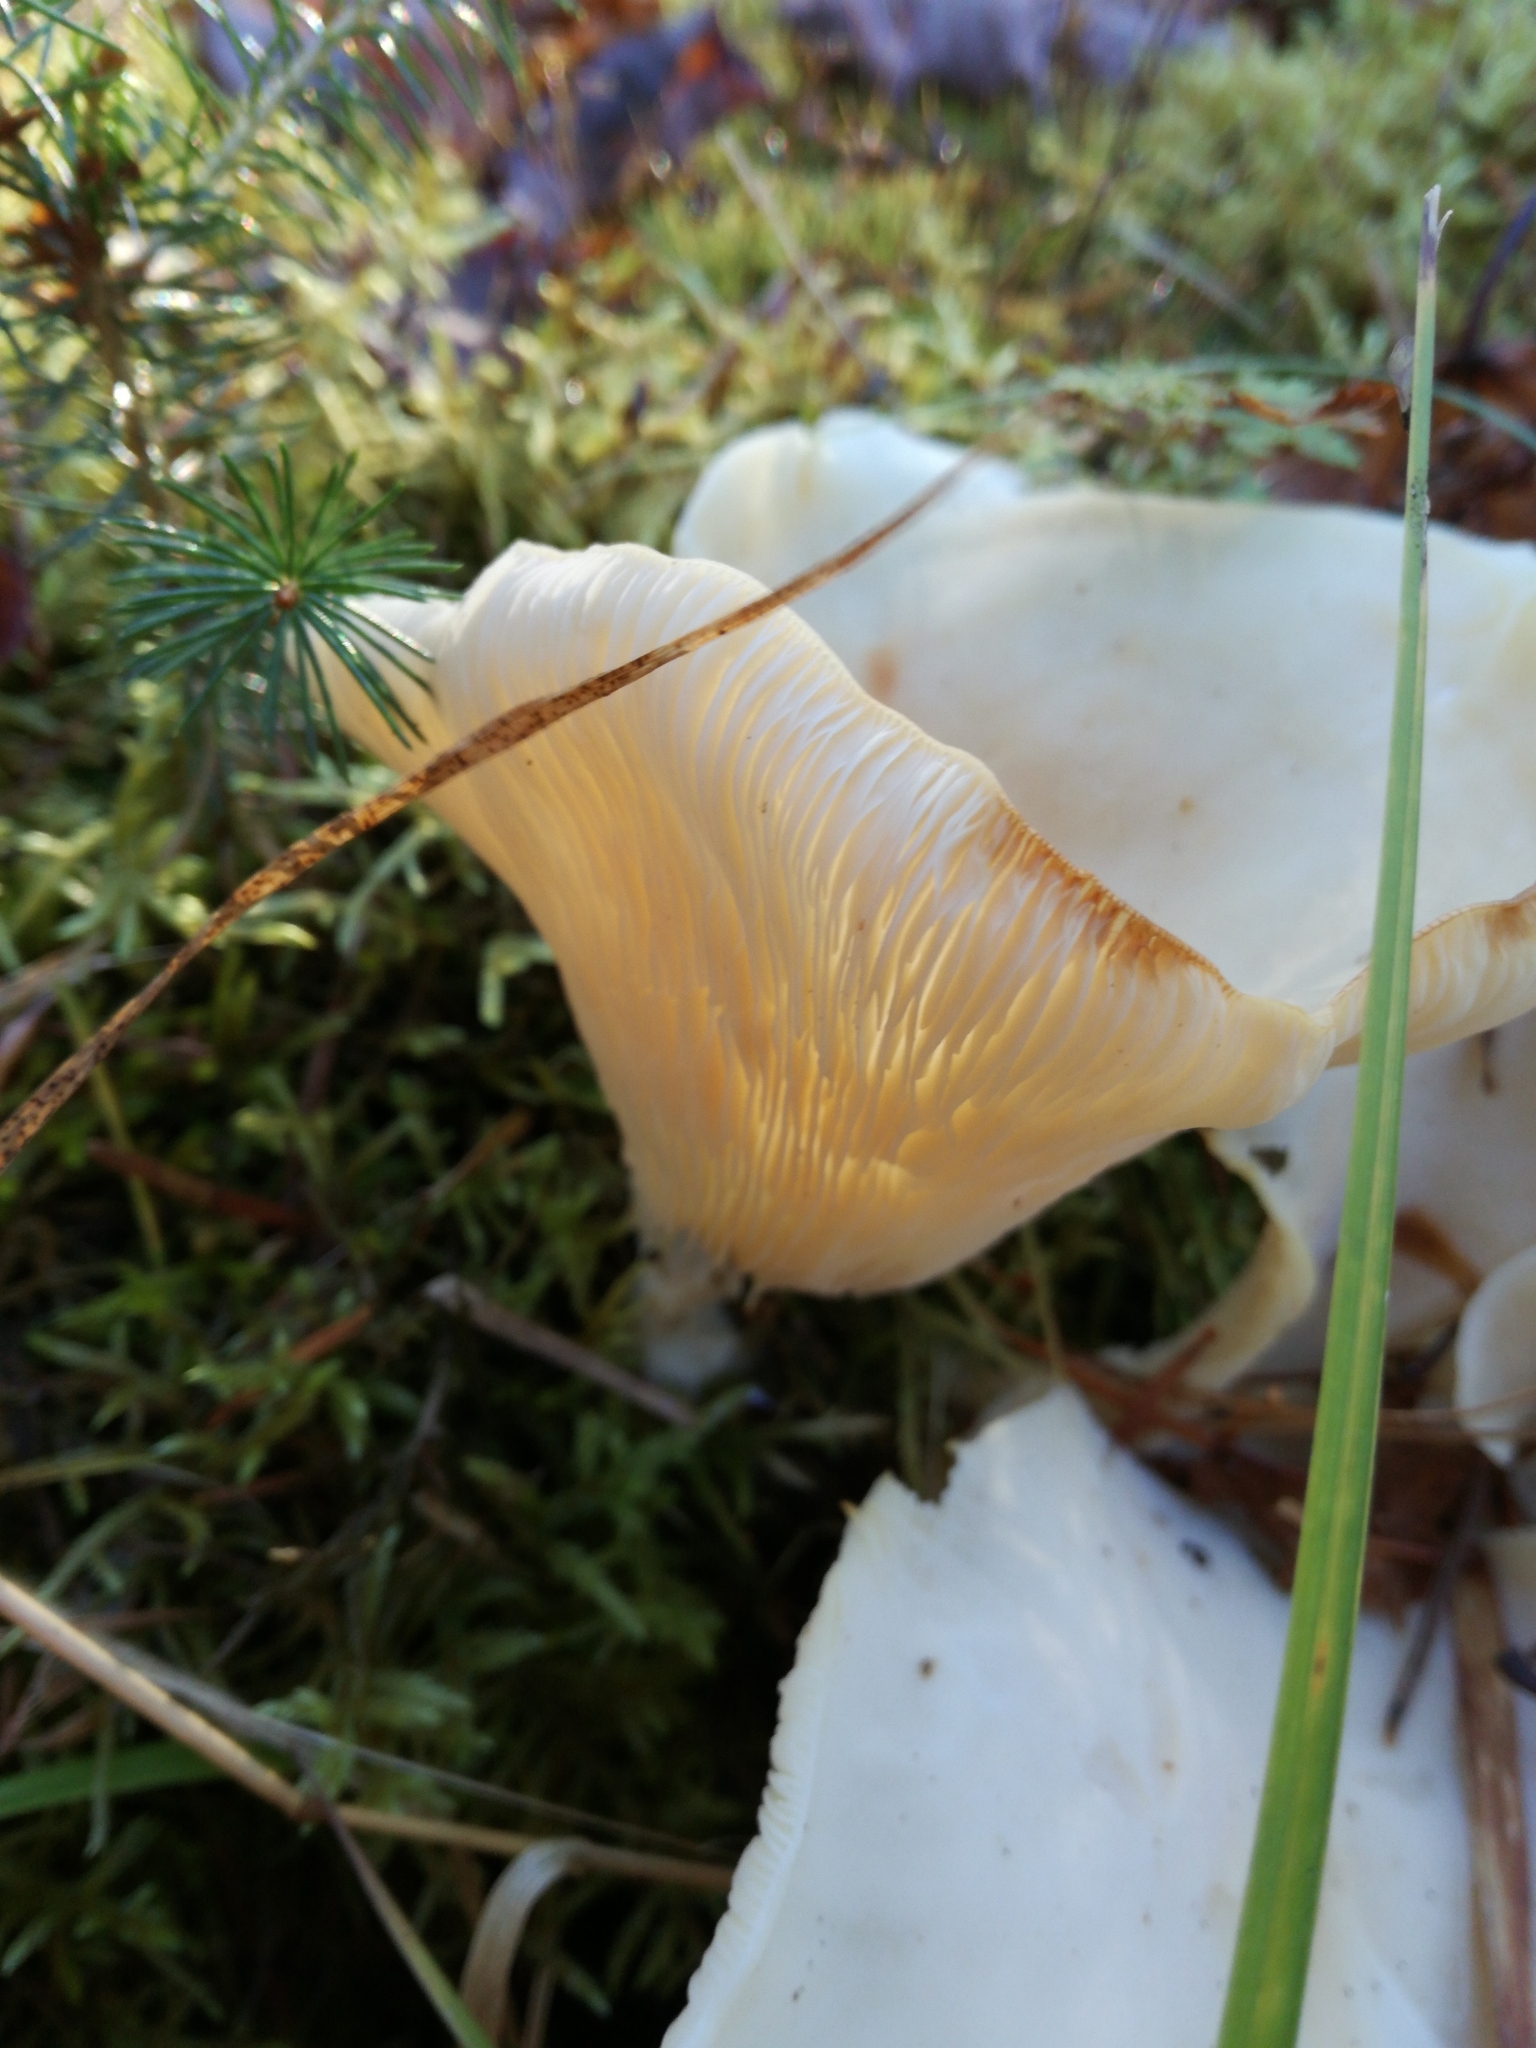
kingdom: Fungi
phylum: Basidiomycota
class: Agaricomycetes
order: Agaricales
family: Marasmiaceae
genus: Pleurocybella
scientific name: Pleurocybella porrigens
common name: Angel's wings
